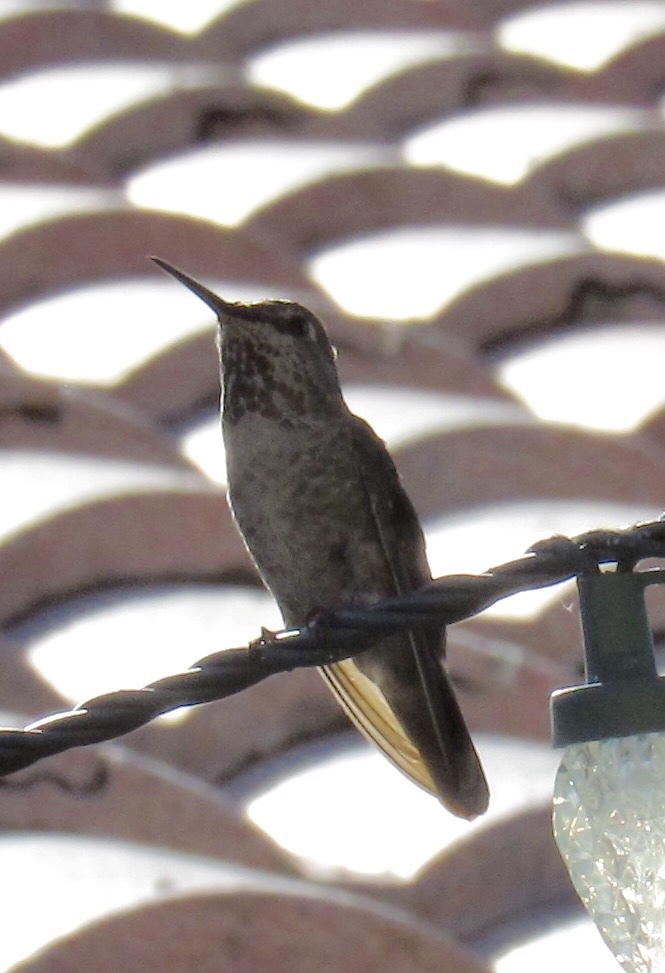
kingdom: Animalia
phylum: Chordata
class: Aves
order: Apodiformes
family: Trochilidae
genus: Calypte
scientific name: Calypte anna
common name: Anna's hummingbird
